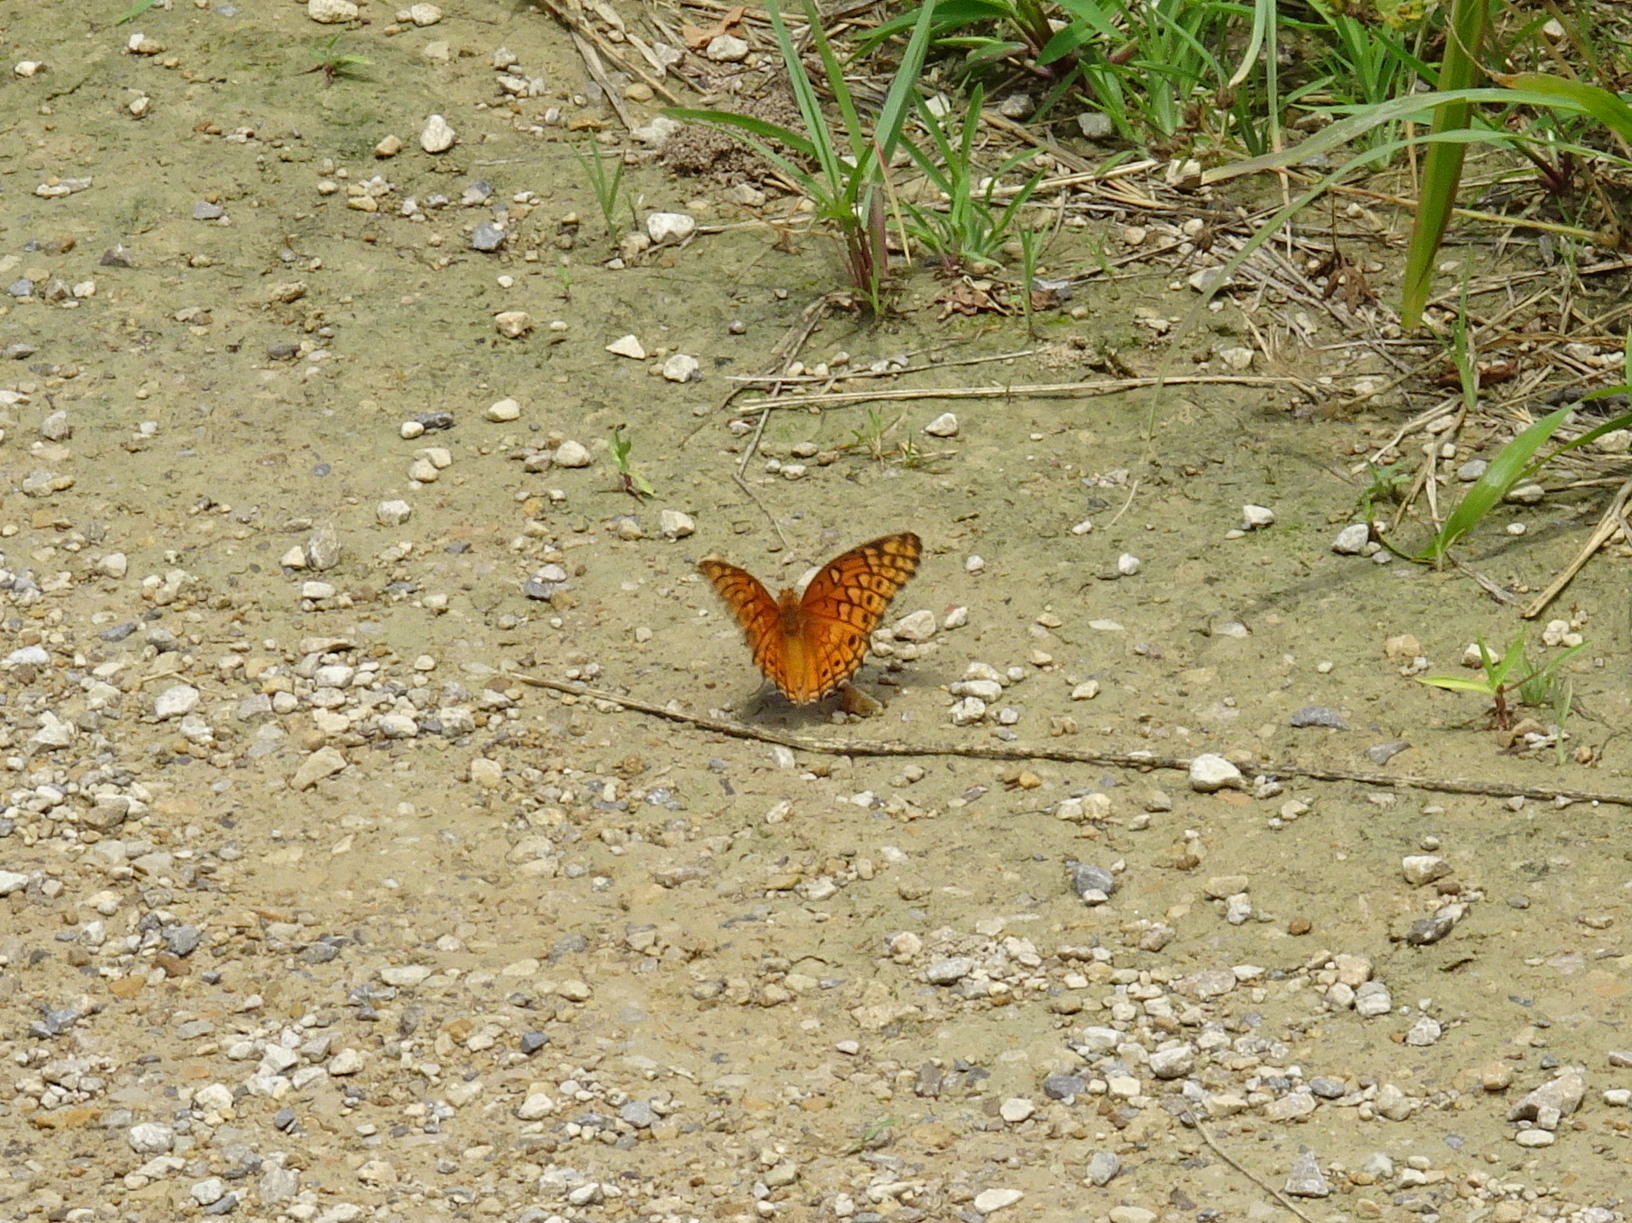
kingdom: Animalia
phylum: Arthropoda
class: Insecta
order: Lepidoptera
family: Nymphalidae
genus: Euptoieta
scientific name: Euptoieta claudia
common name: Variegated fritillary
